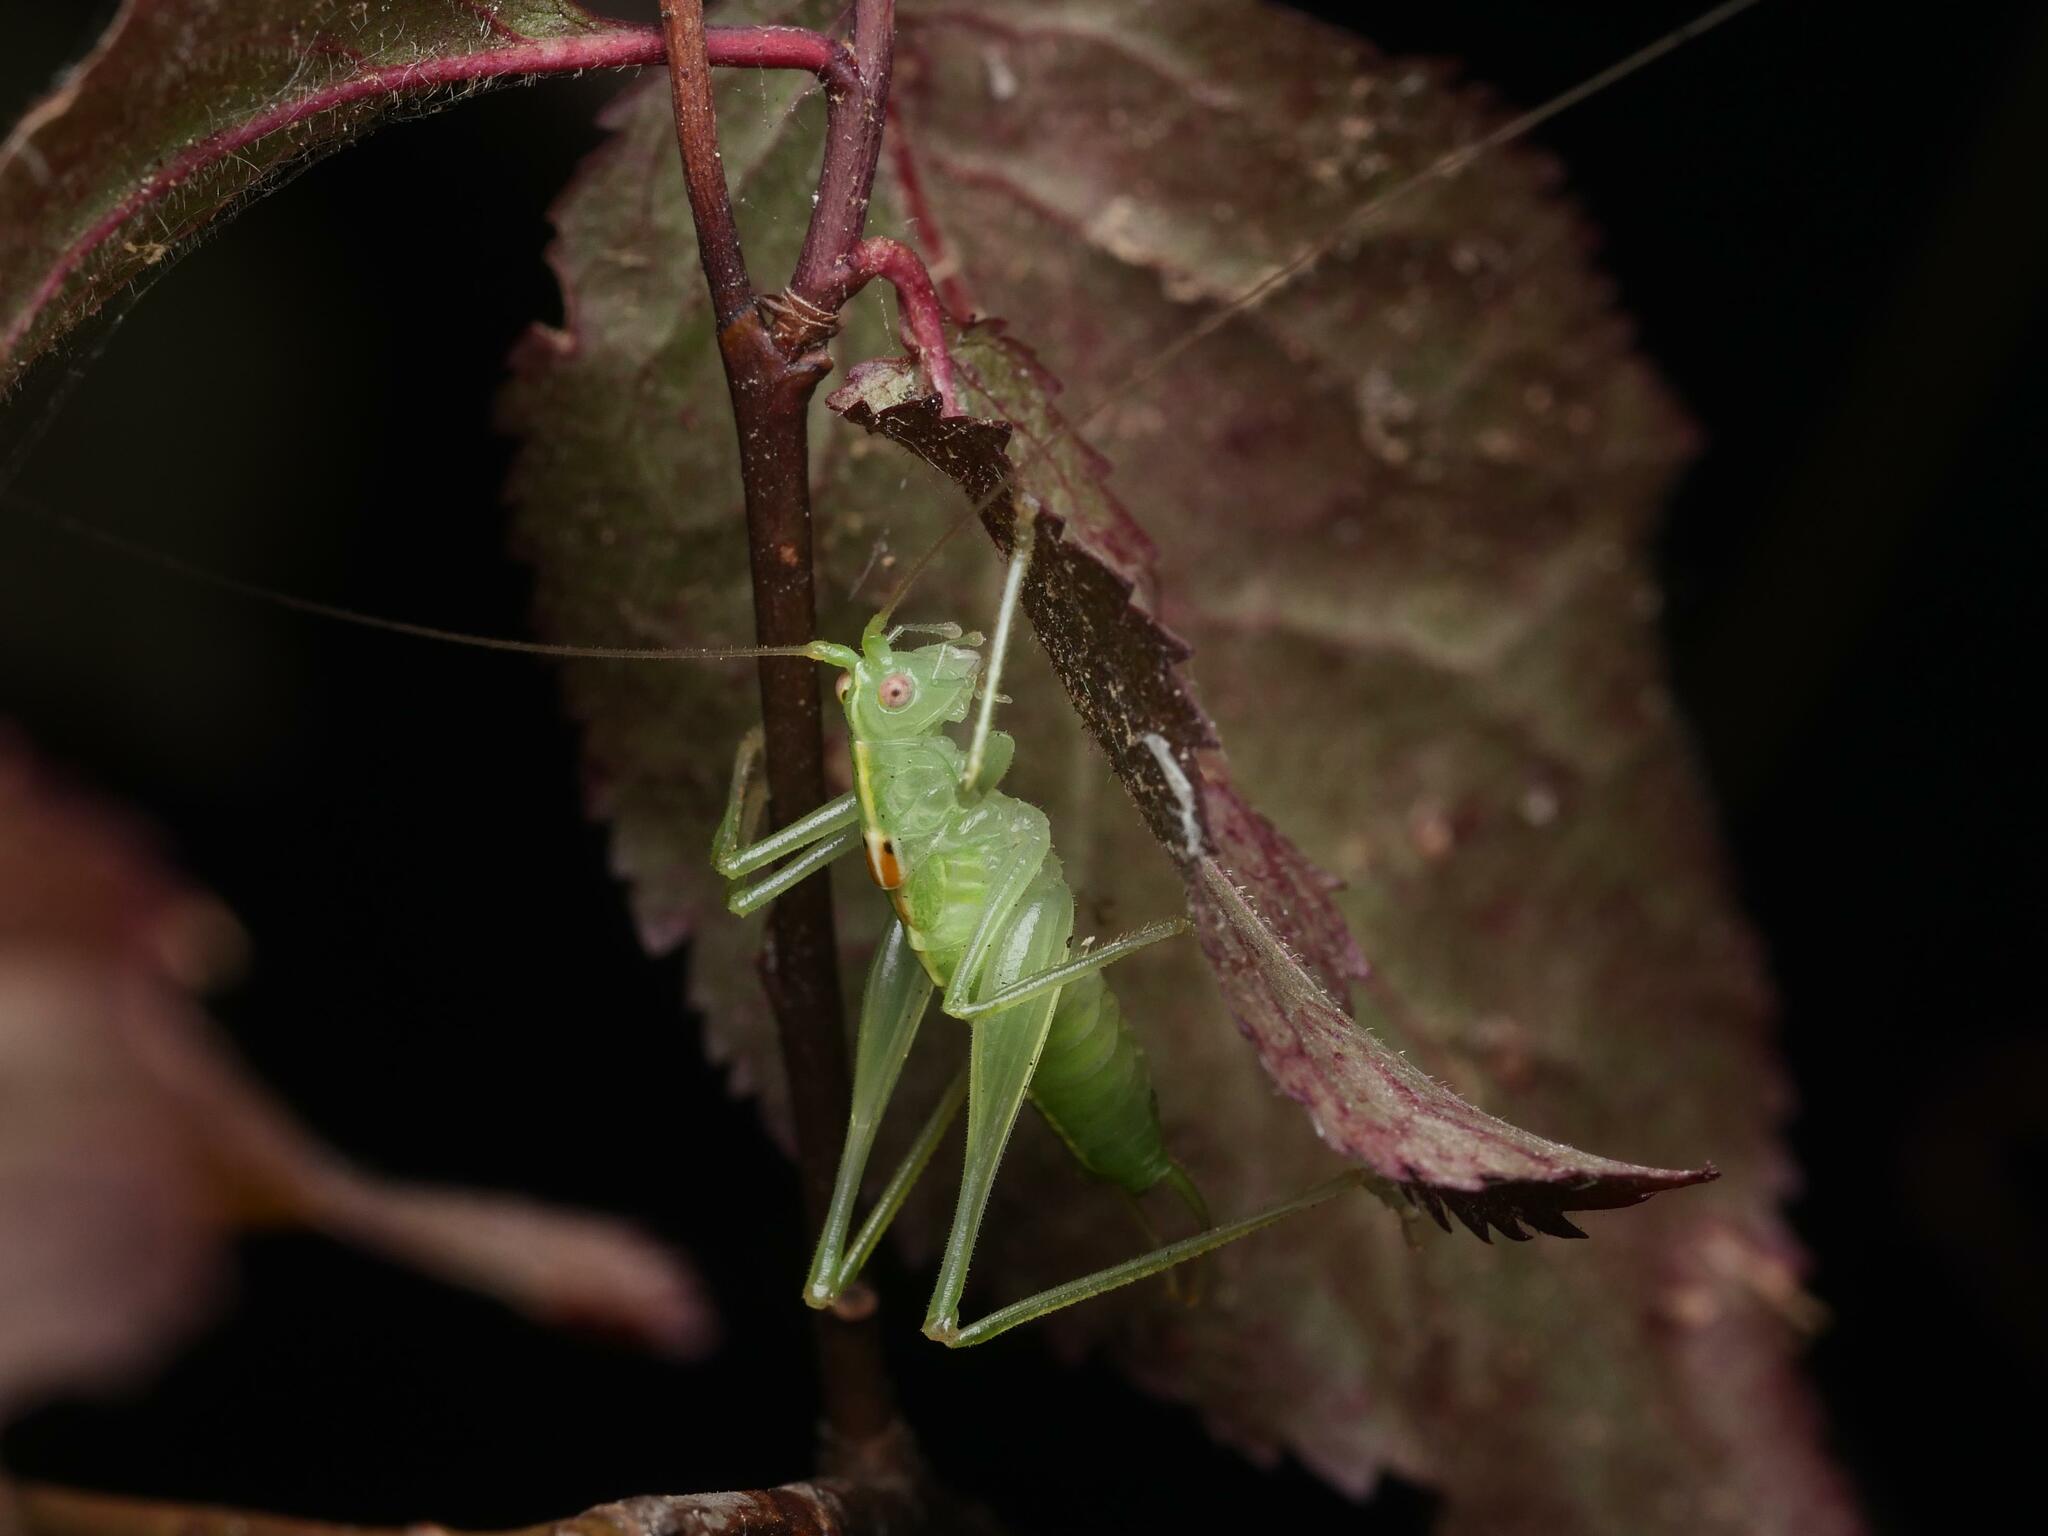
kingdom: Animalia
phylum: Arthropoda
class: Insecta
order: Orthoptera
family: Tettigoniidae
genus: Meconema
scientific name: Meconema meridionale
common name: Southern oak bush-cricket
